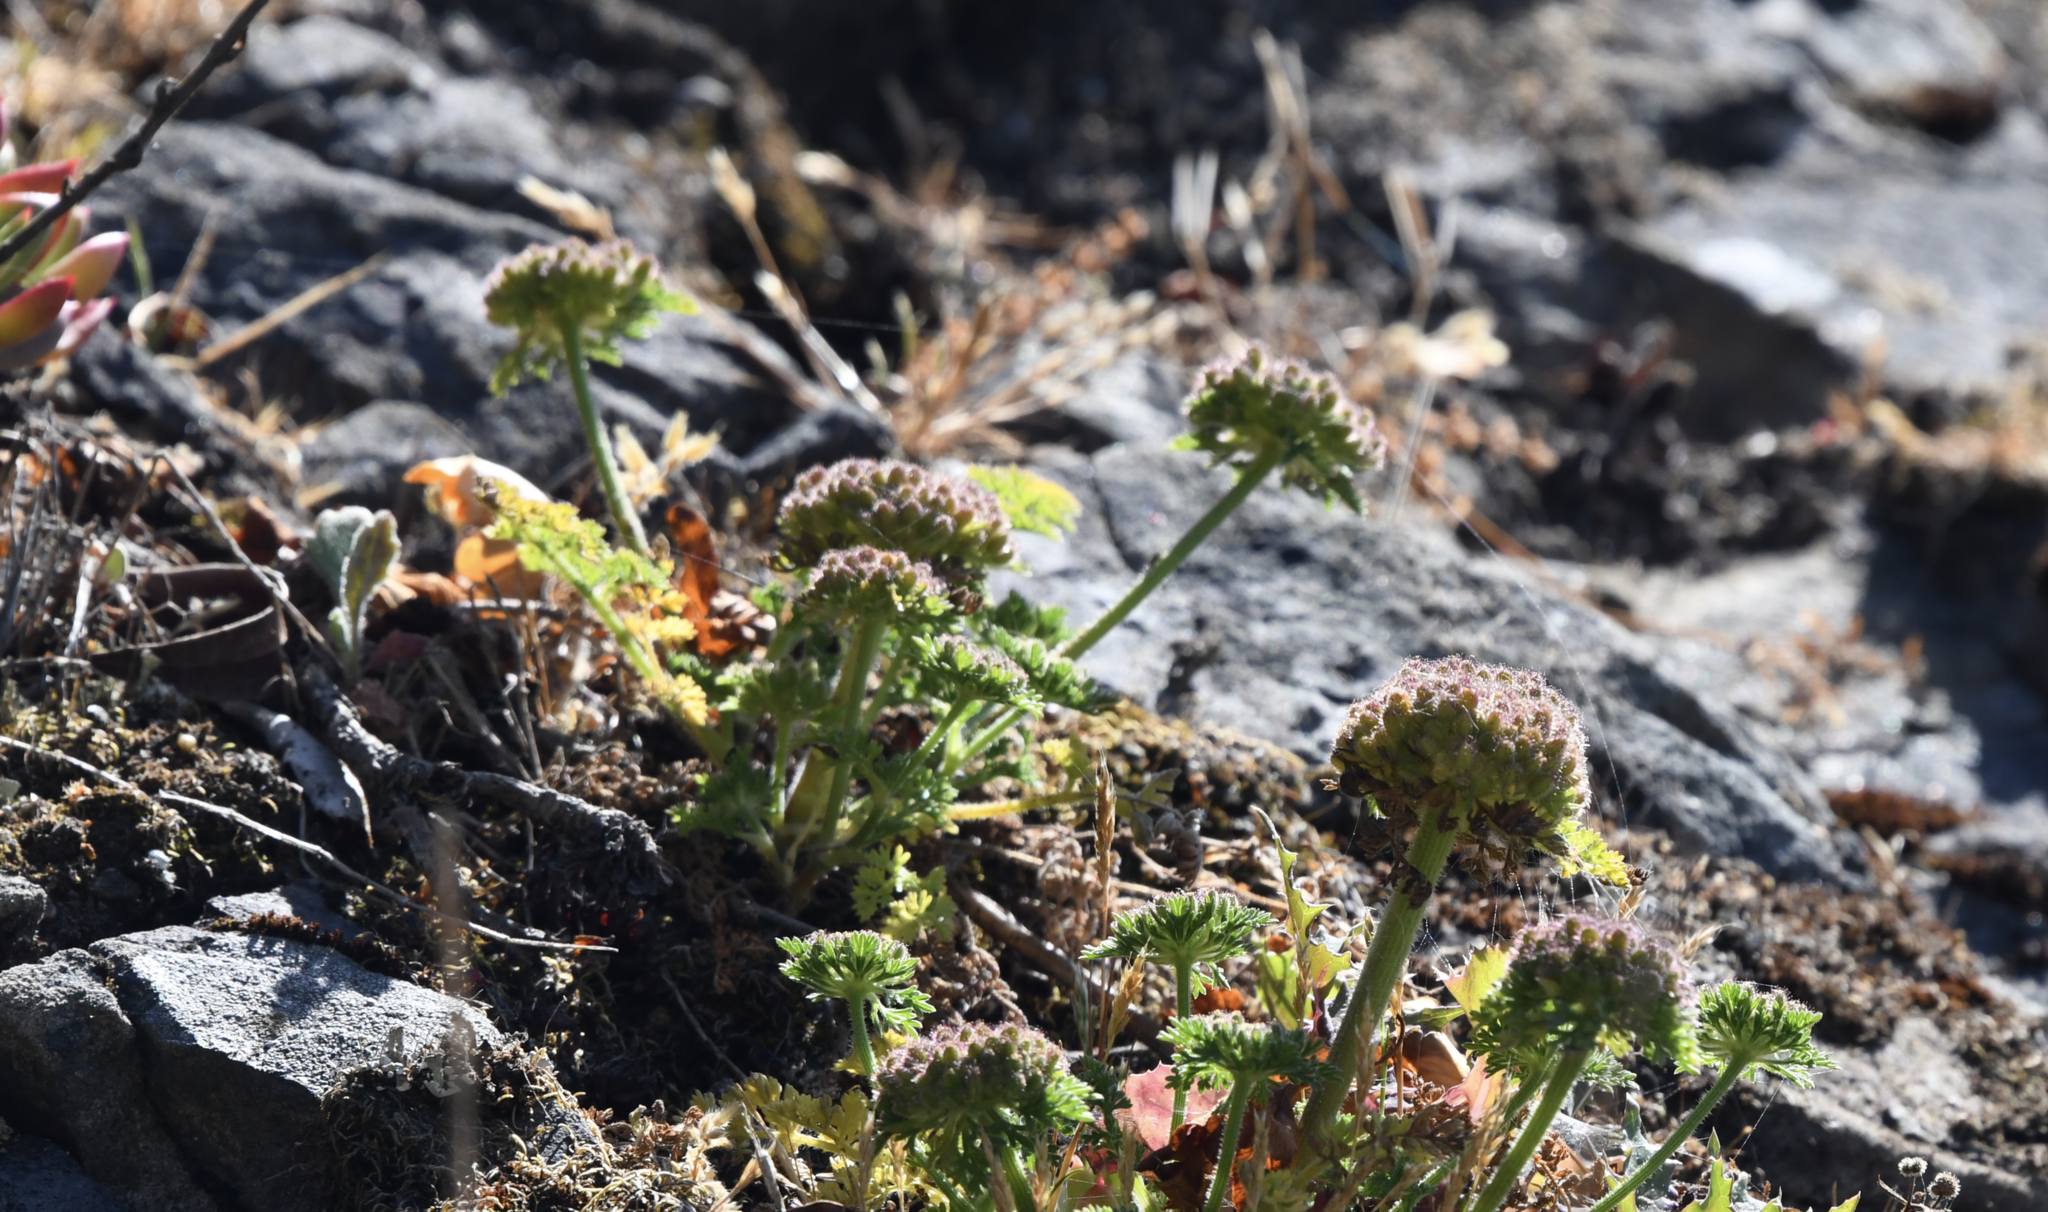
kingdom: Plantae
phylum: Tracheophyta
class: Magnoliopsida
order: Apiales
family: Apiaceae
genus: Daucus
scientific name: Daucus pusillus
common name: Southwest wild carrot
